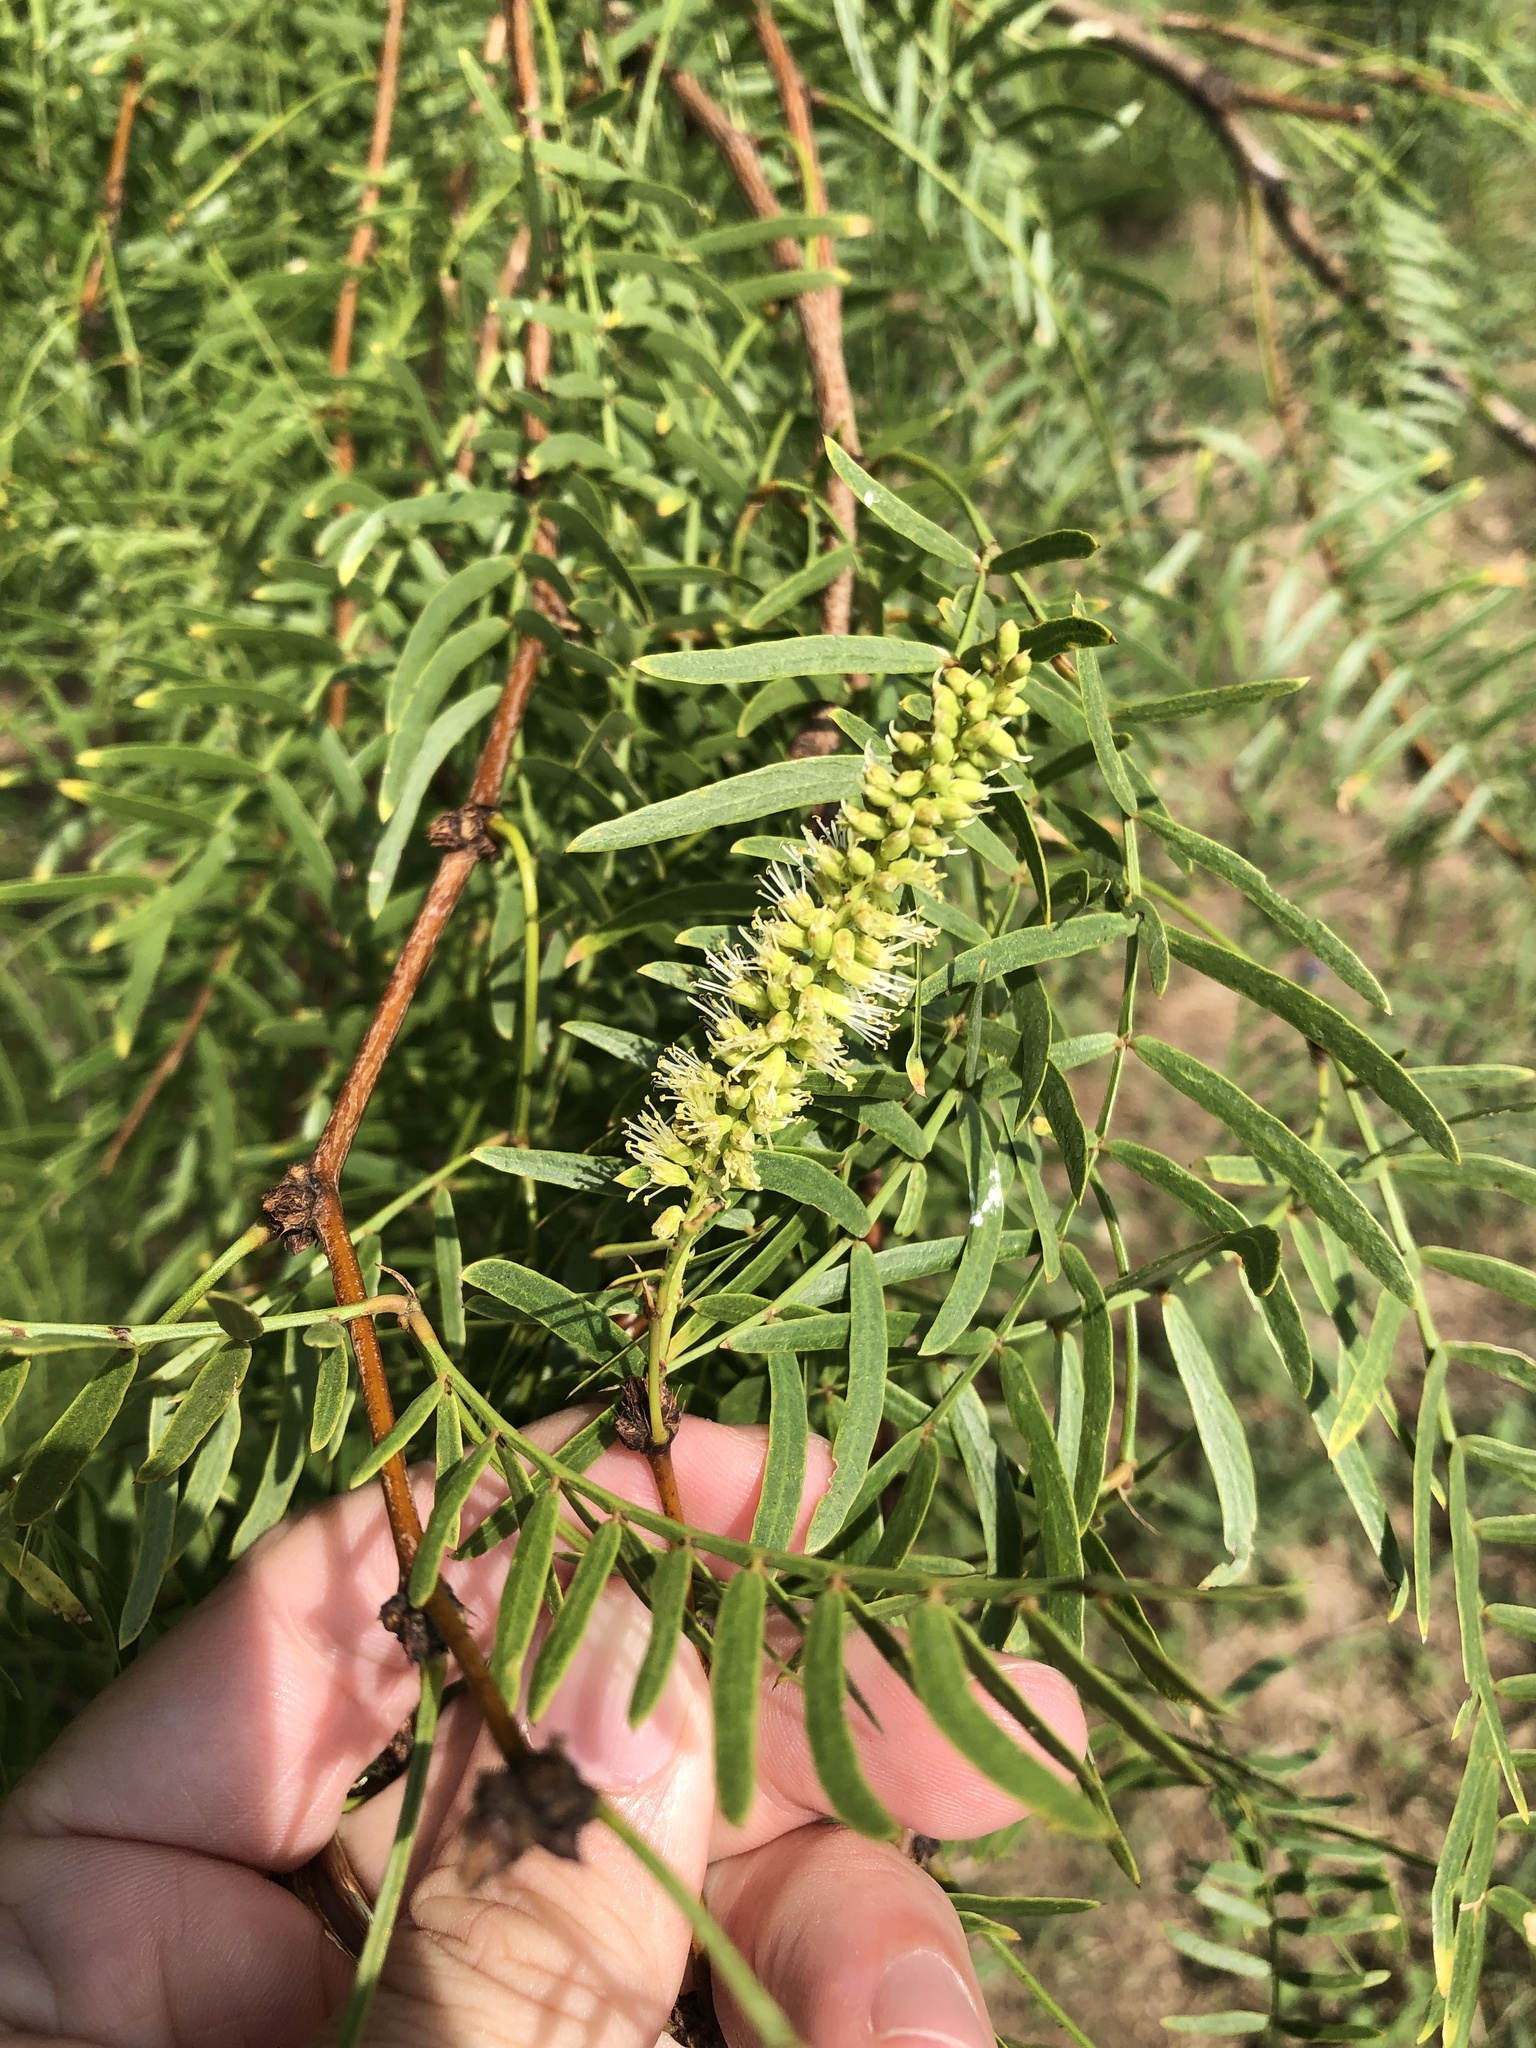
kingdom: Plantae
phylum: Tracheophyta
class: Magnoliopsida
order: Fabales
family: Fabaceae
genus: Prosopis
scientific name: Prosopis glandulosa
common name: Honey mesquite
